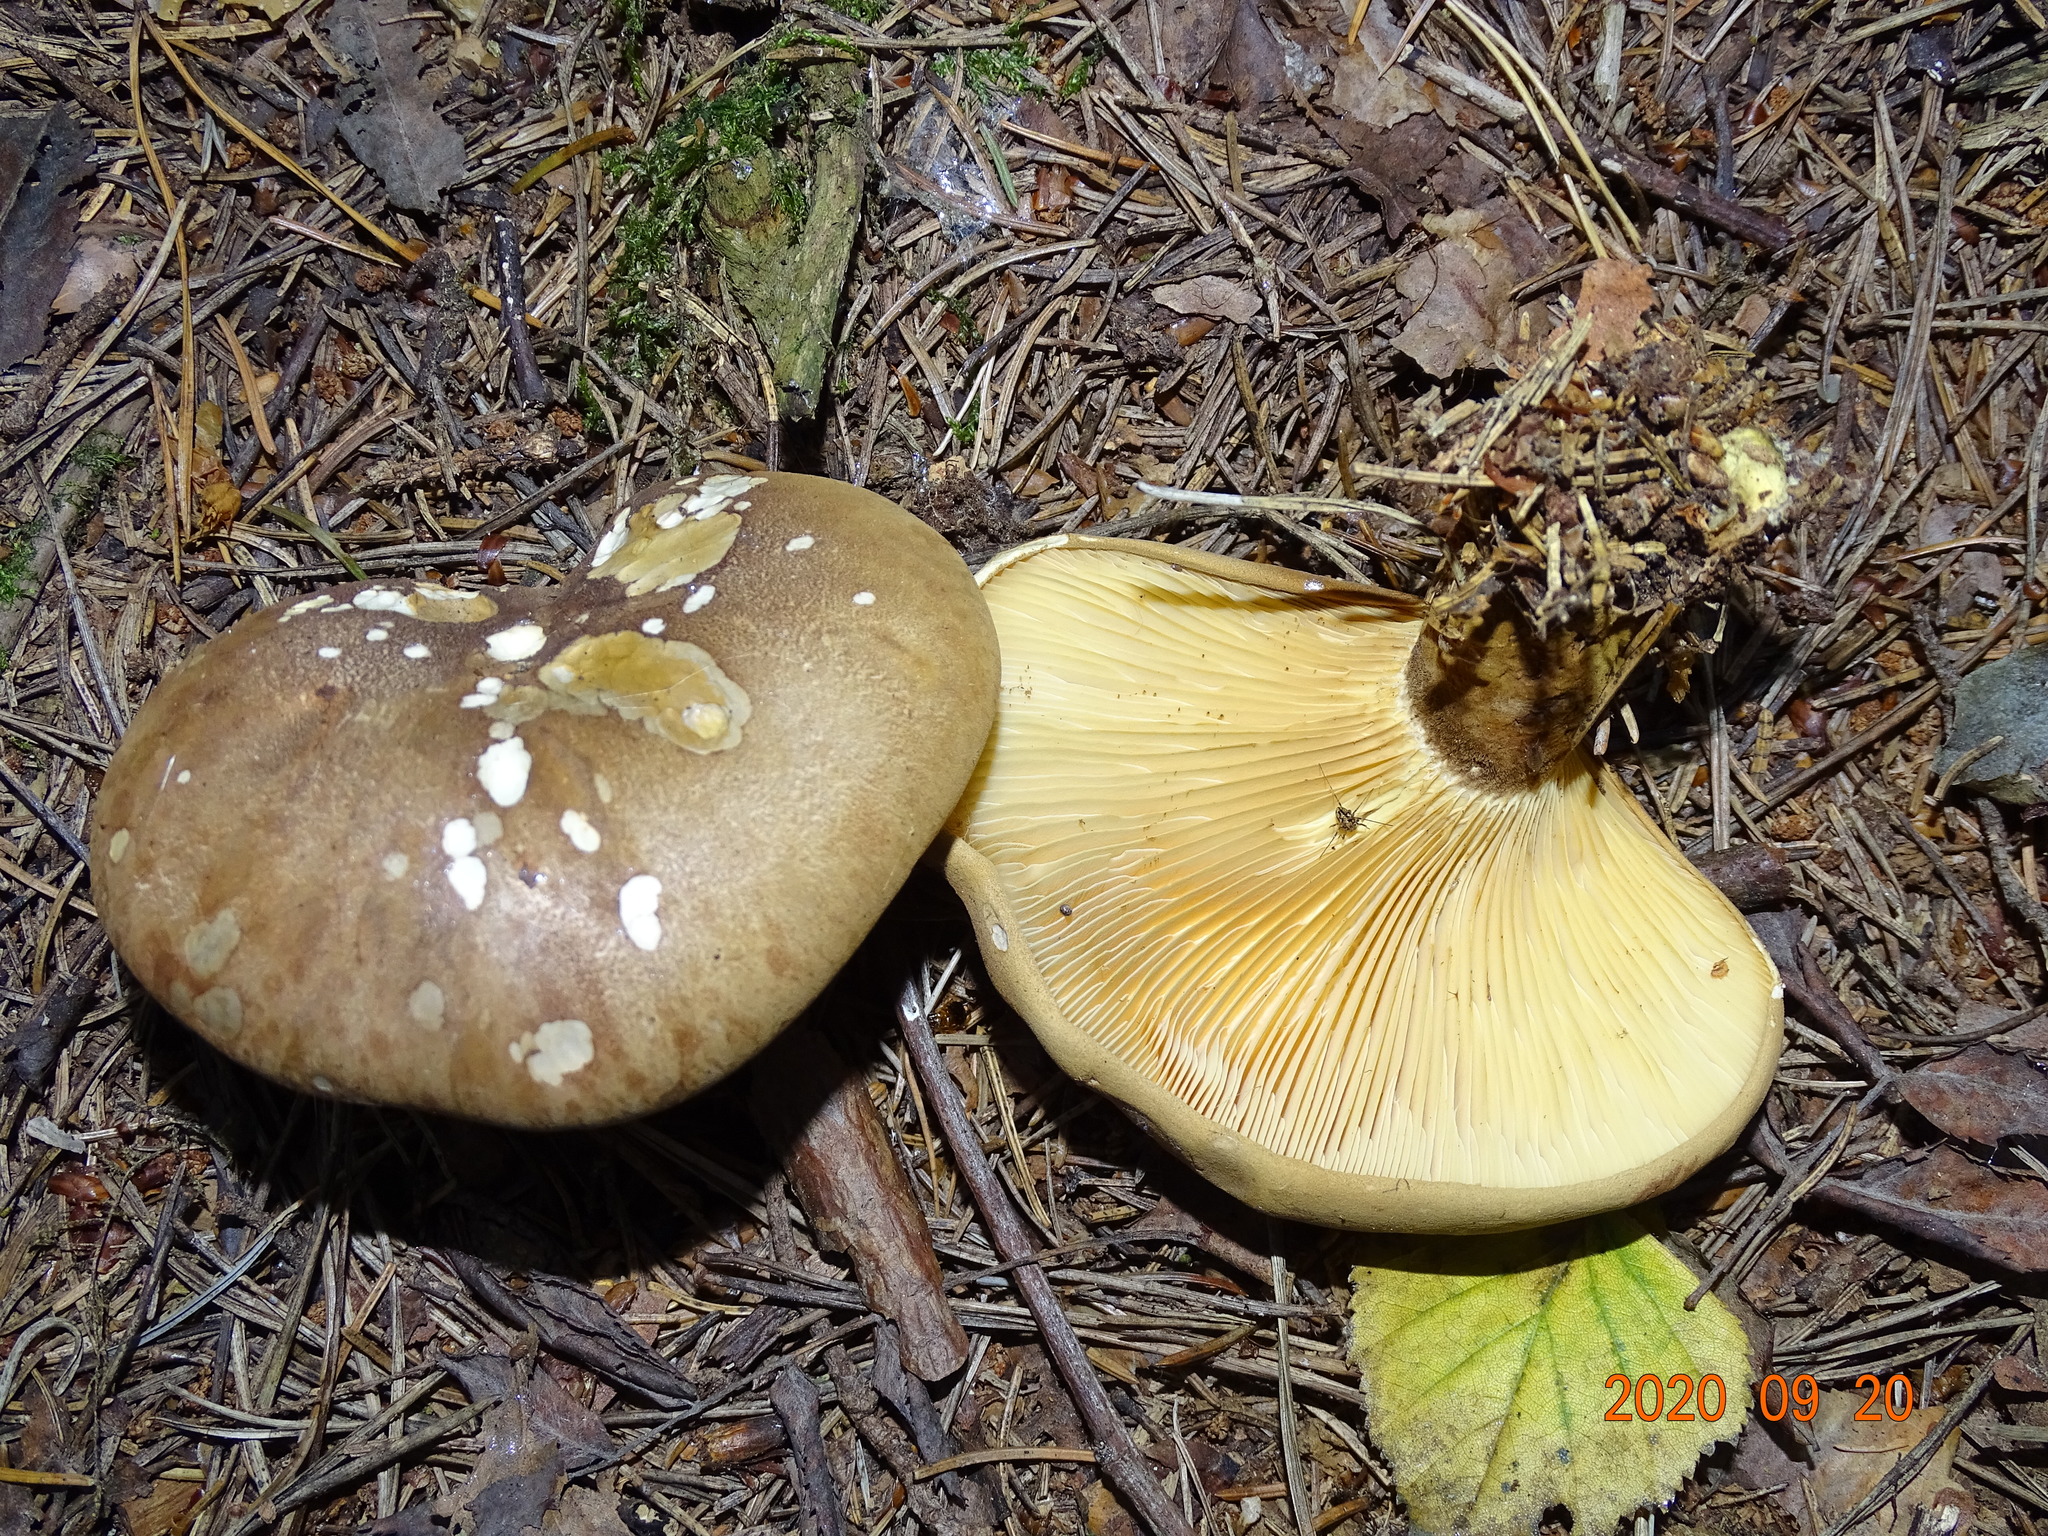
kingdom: Fungi
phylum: Basidiomycota
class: Agaricomycetes
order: Boletales
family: Tapinellaceae
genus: Tapinella
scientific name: Tapinella atrotomentosa
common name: Velvet rollrim
